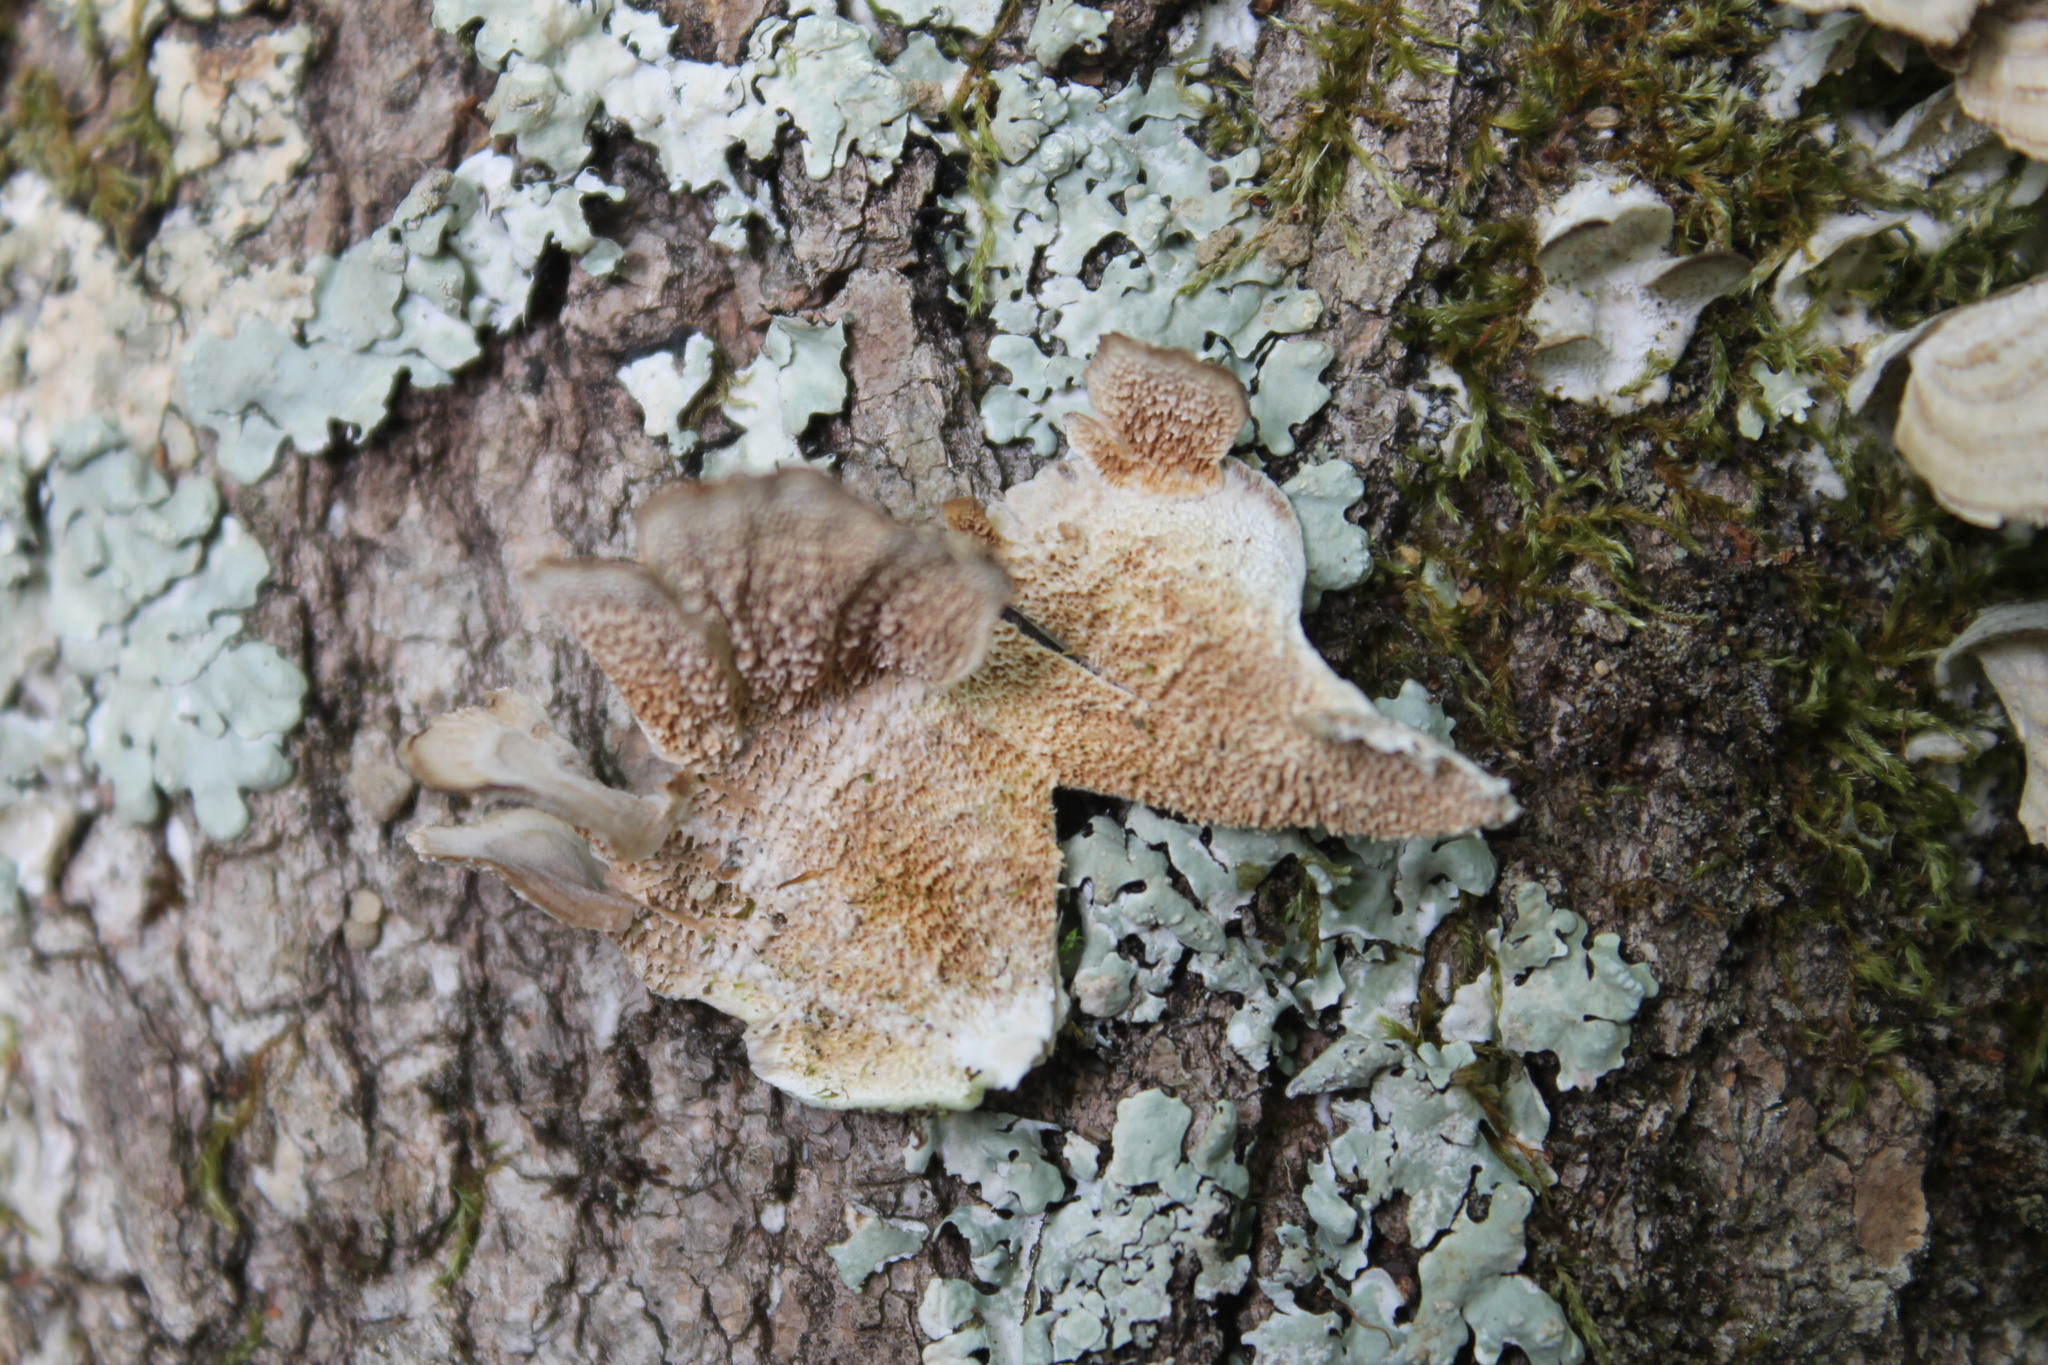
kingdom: Fungi
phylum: Basidiomycota
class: Agaricomycetes
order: Hymenochaetales
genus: Trichaptum
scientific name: Trichaptum biforme
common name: Violet-toothed polypore
